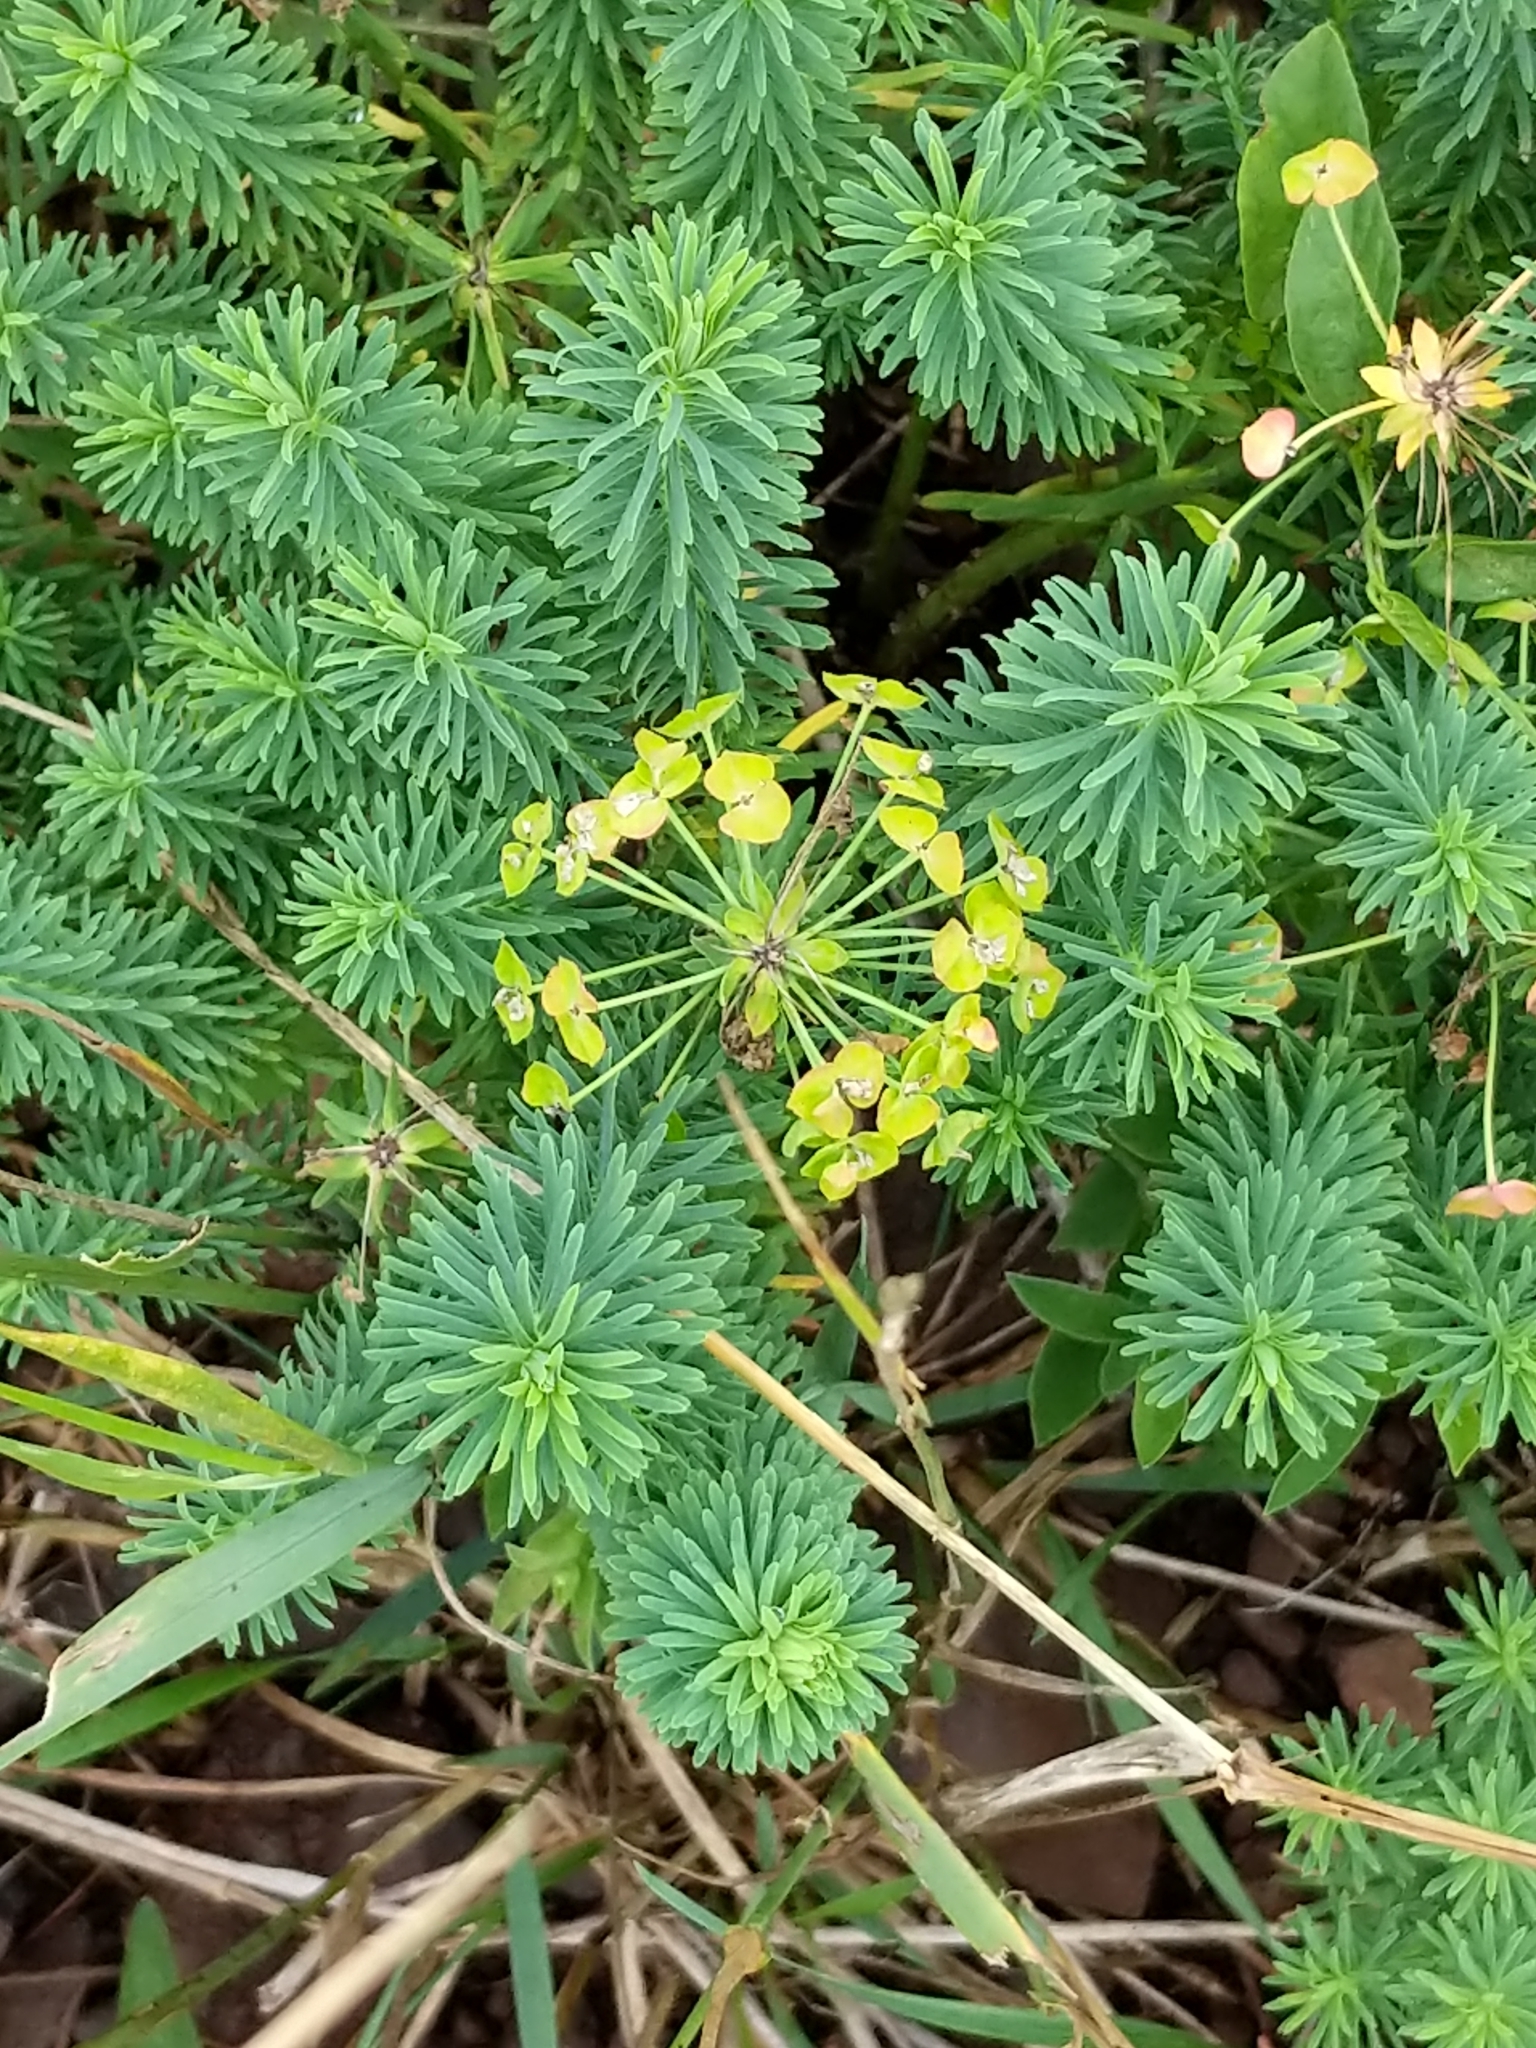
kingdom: Plantae
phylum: Tracheophyta
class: Magnoliopsida
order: Malpighiales
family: Euphorbiaceae
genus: Euphorbia
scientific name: Euphorbia cyparissias
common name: Cypress spurge
